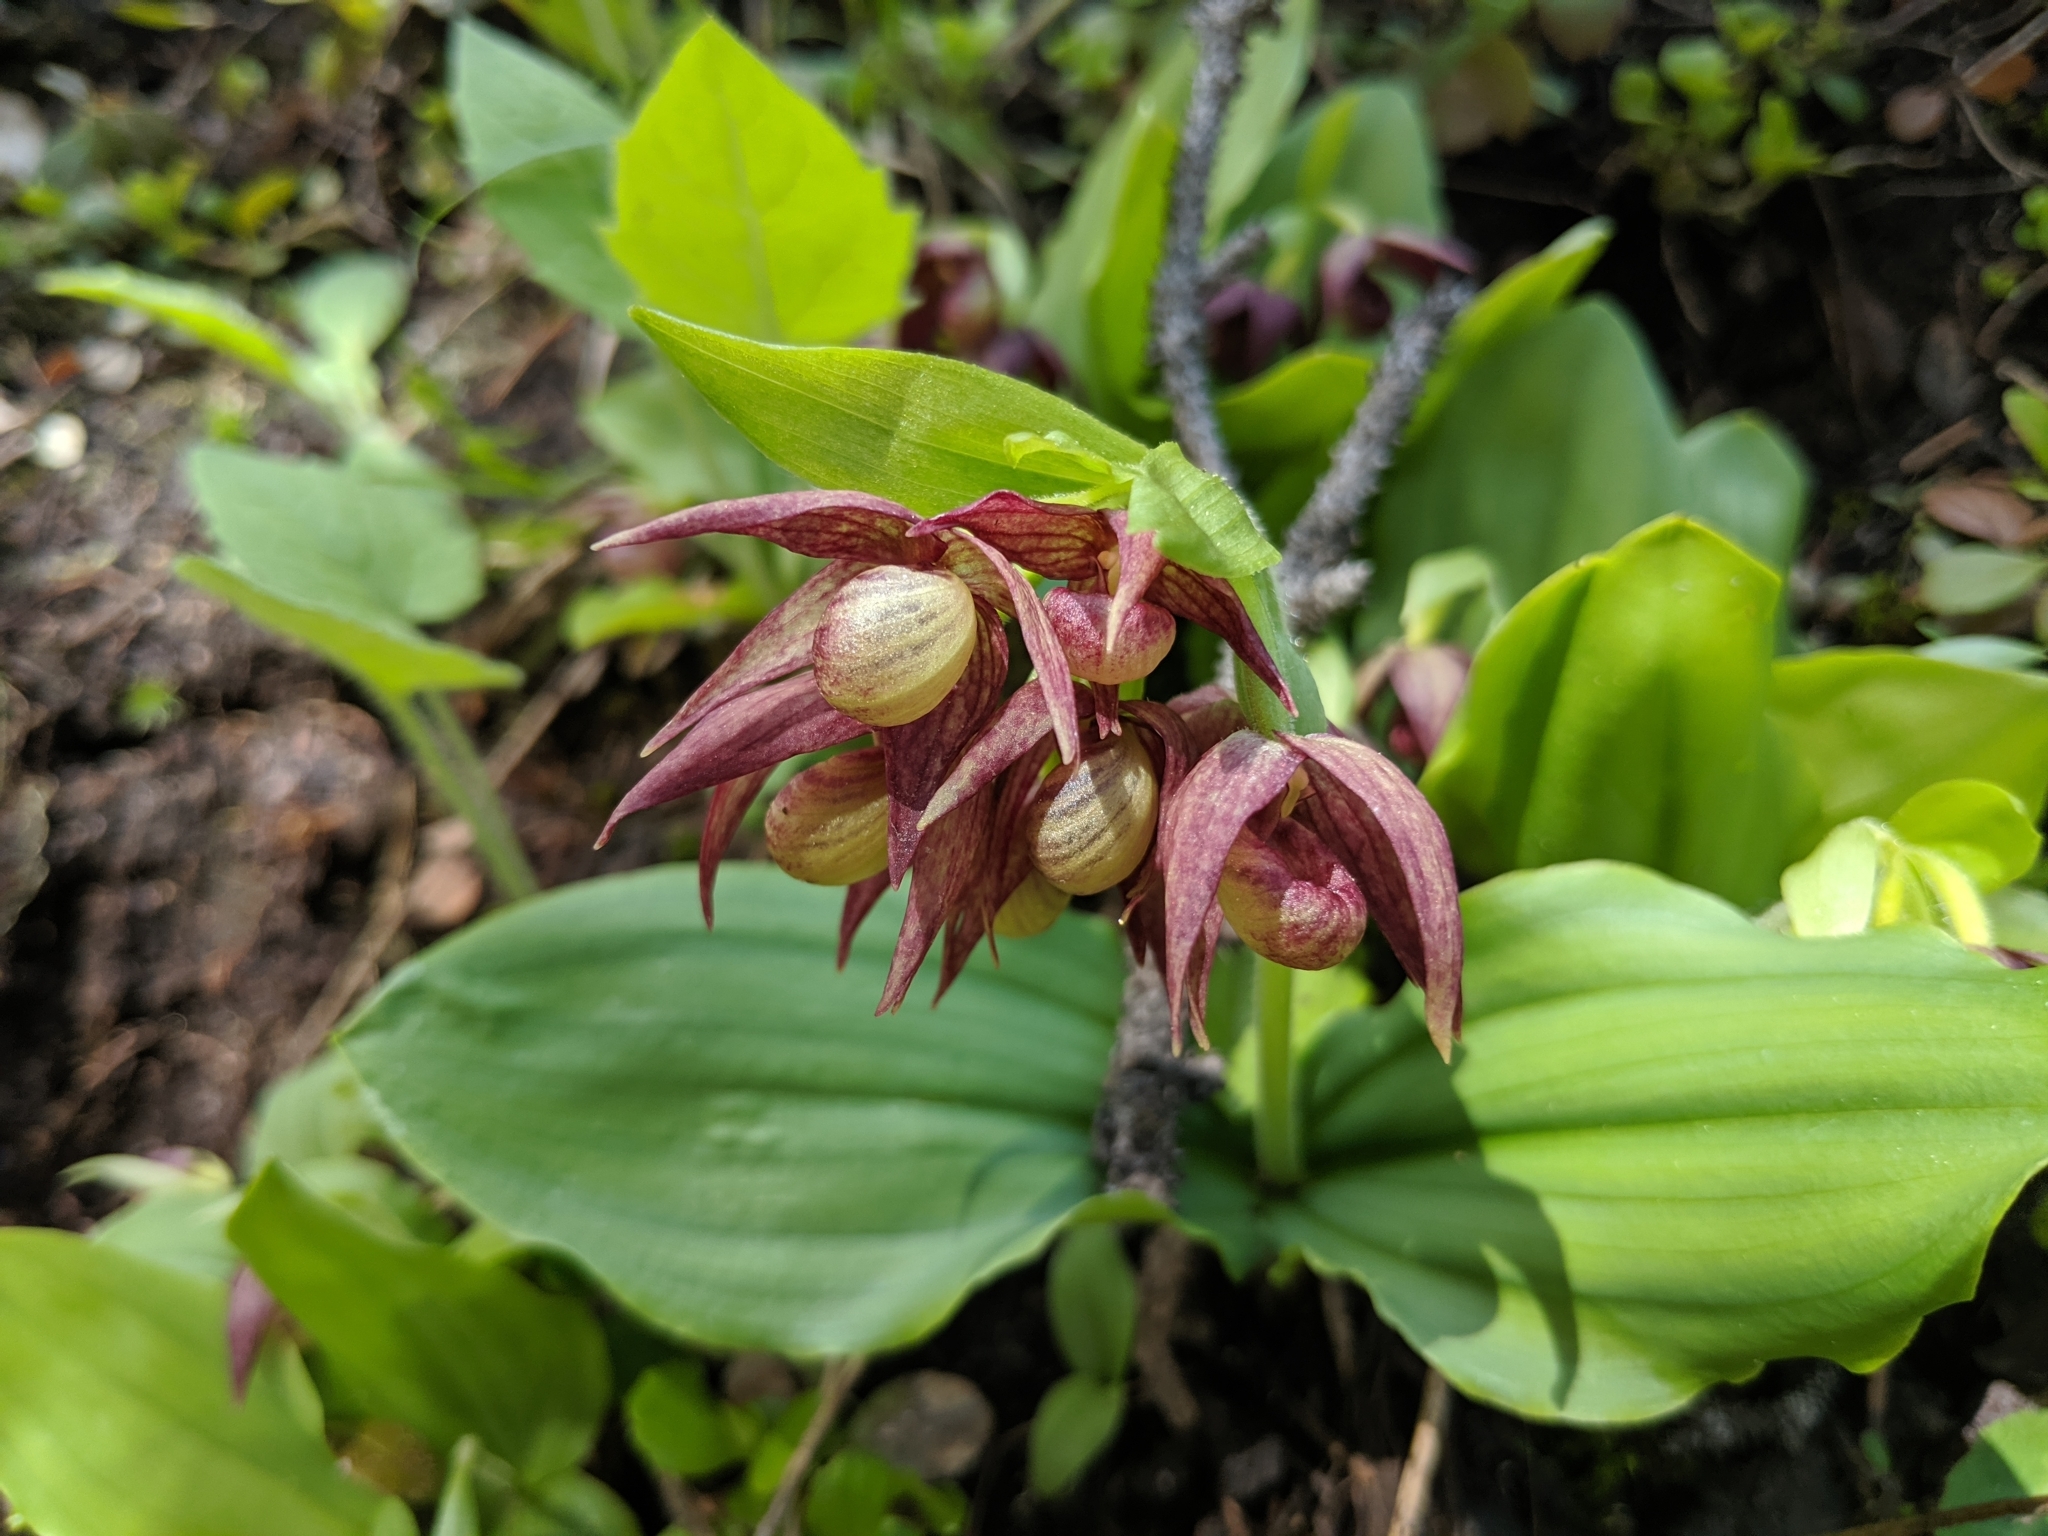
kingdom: Plantae
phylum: Tracheophyta
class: Liliopsida
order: Asparagales
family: Orchidaceae
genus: Cypripedium
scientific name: Cypripedium fasciculatum
